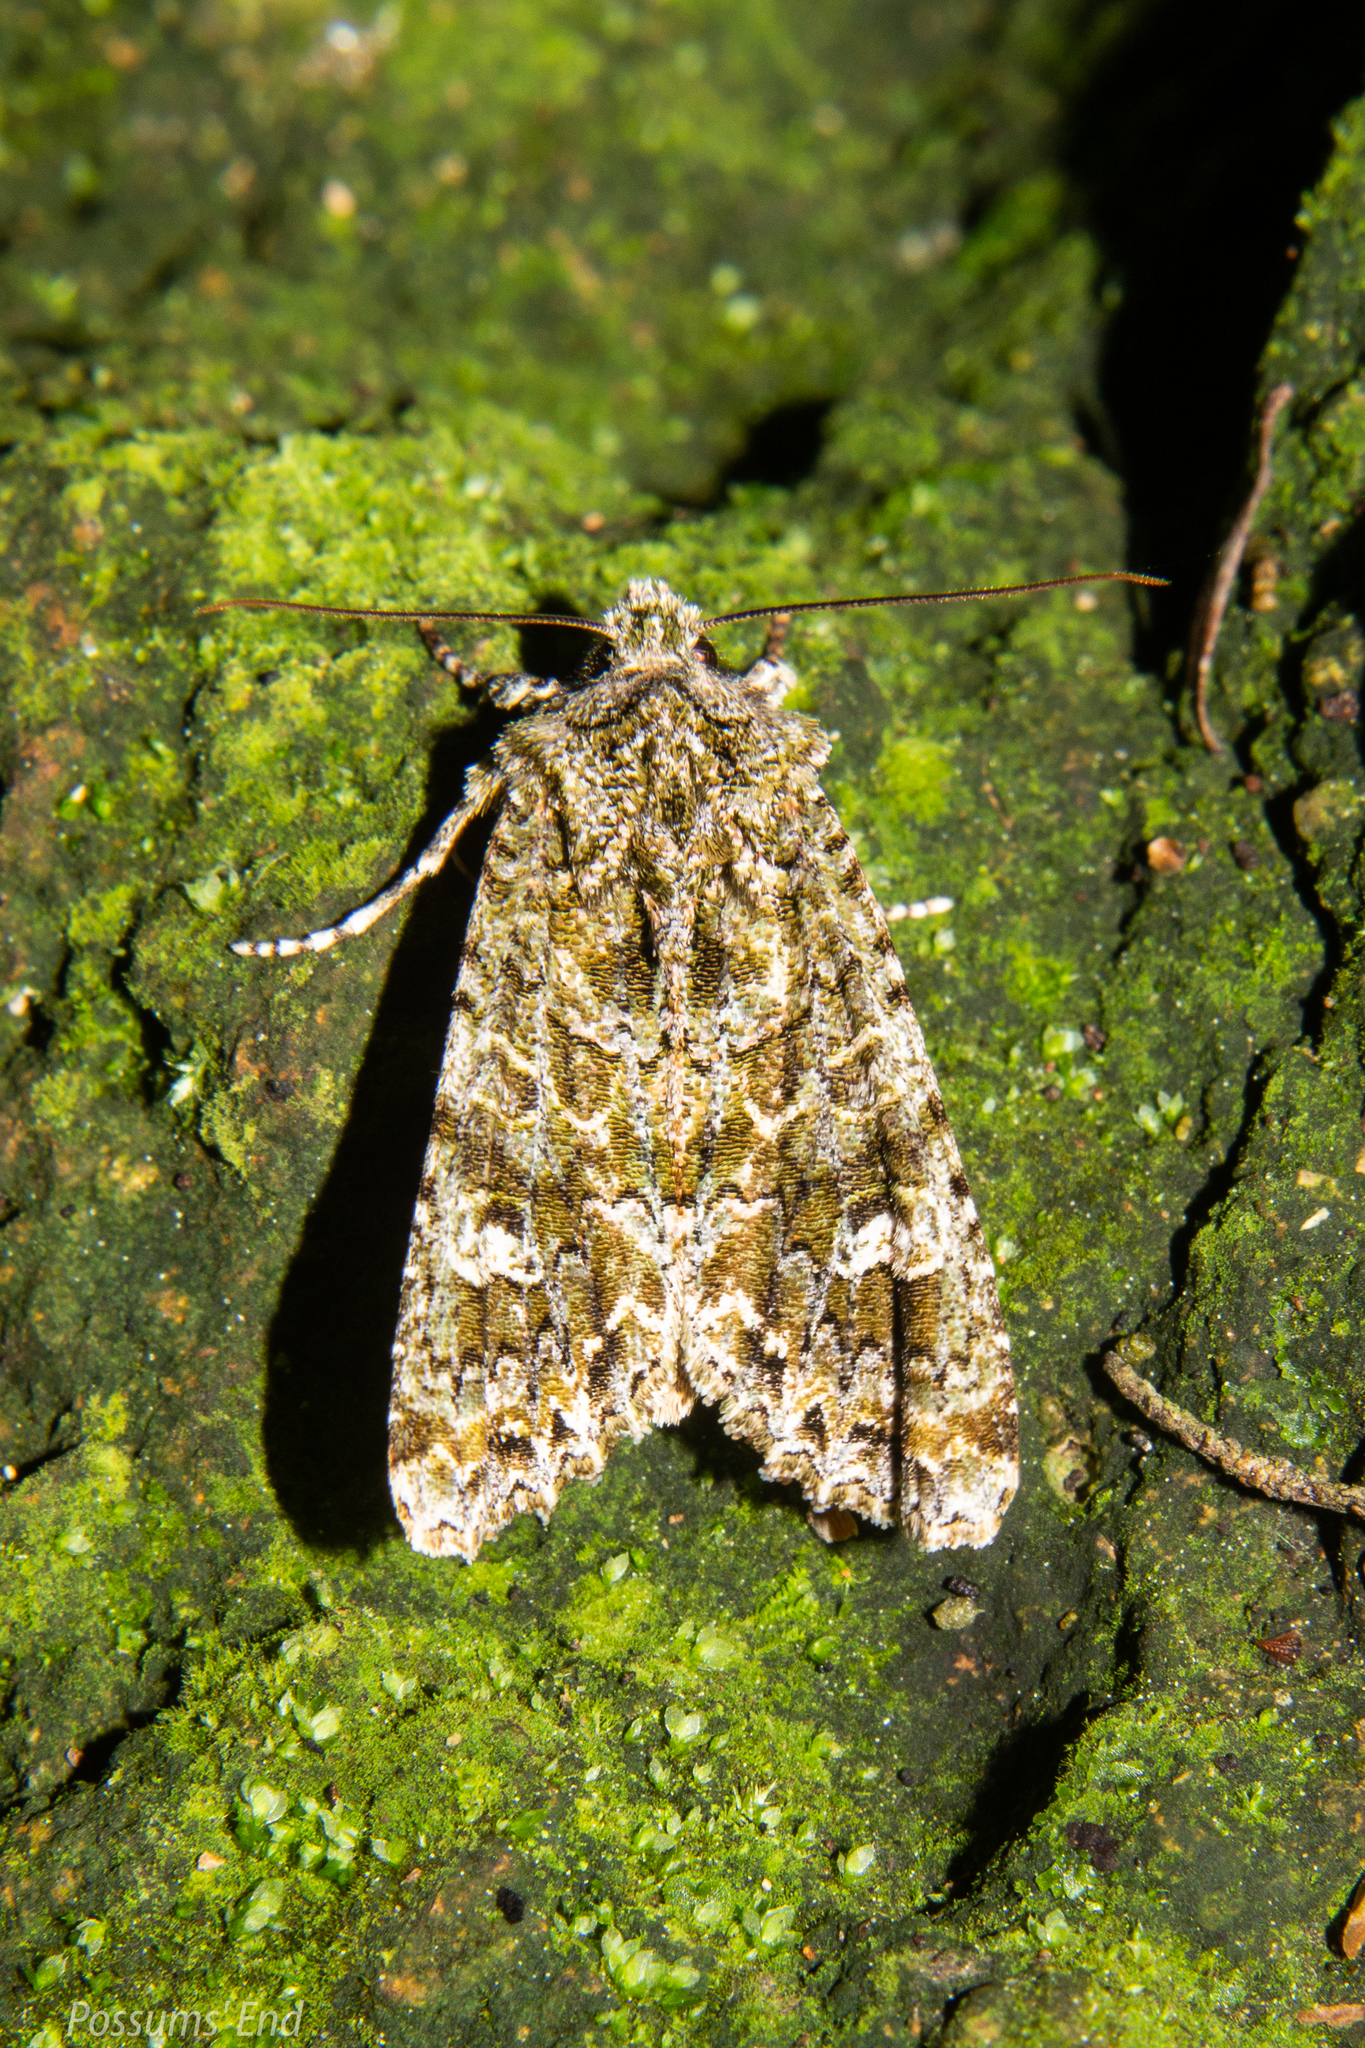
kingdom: Animalia
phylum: Arthropoda
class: Insecta
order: Lepidoptera
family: Noctuidae
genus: Ichneutica
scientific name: Ichneutica
